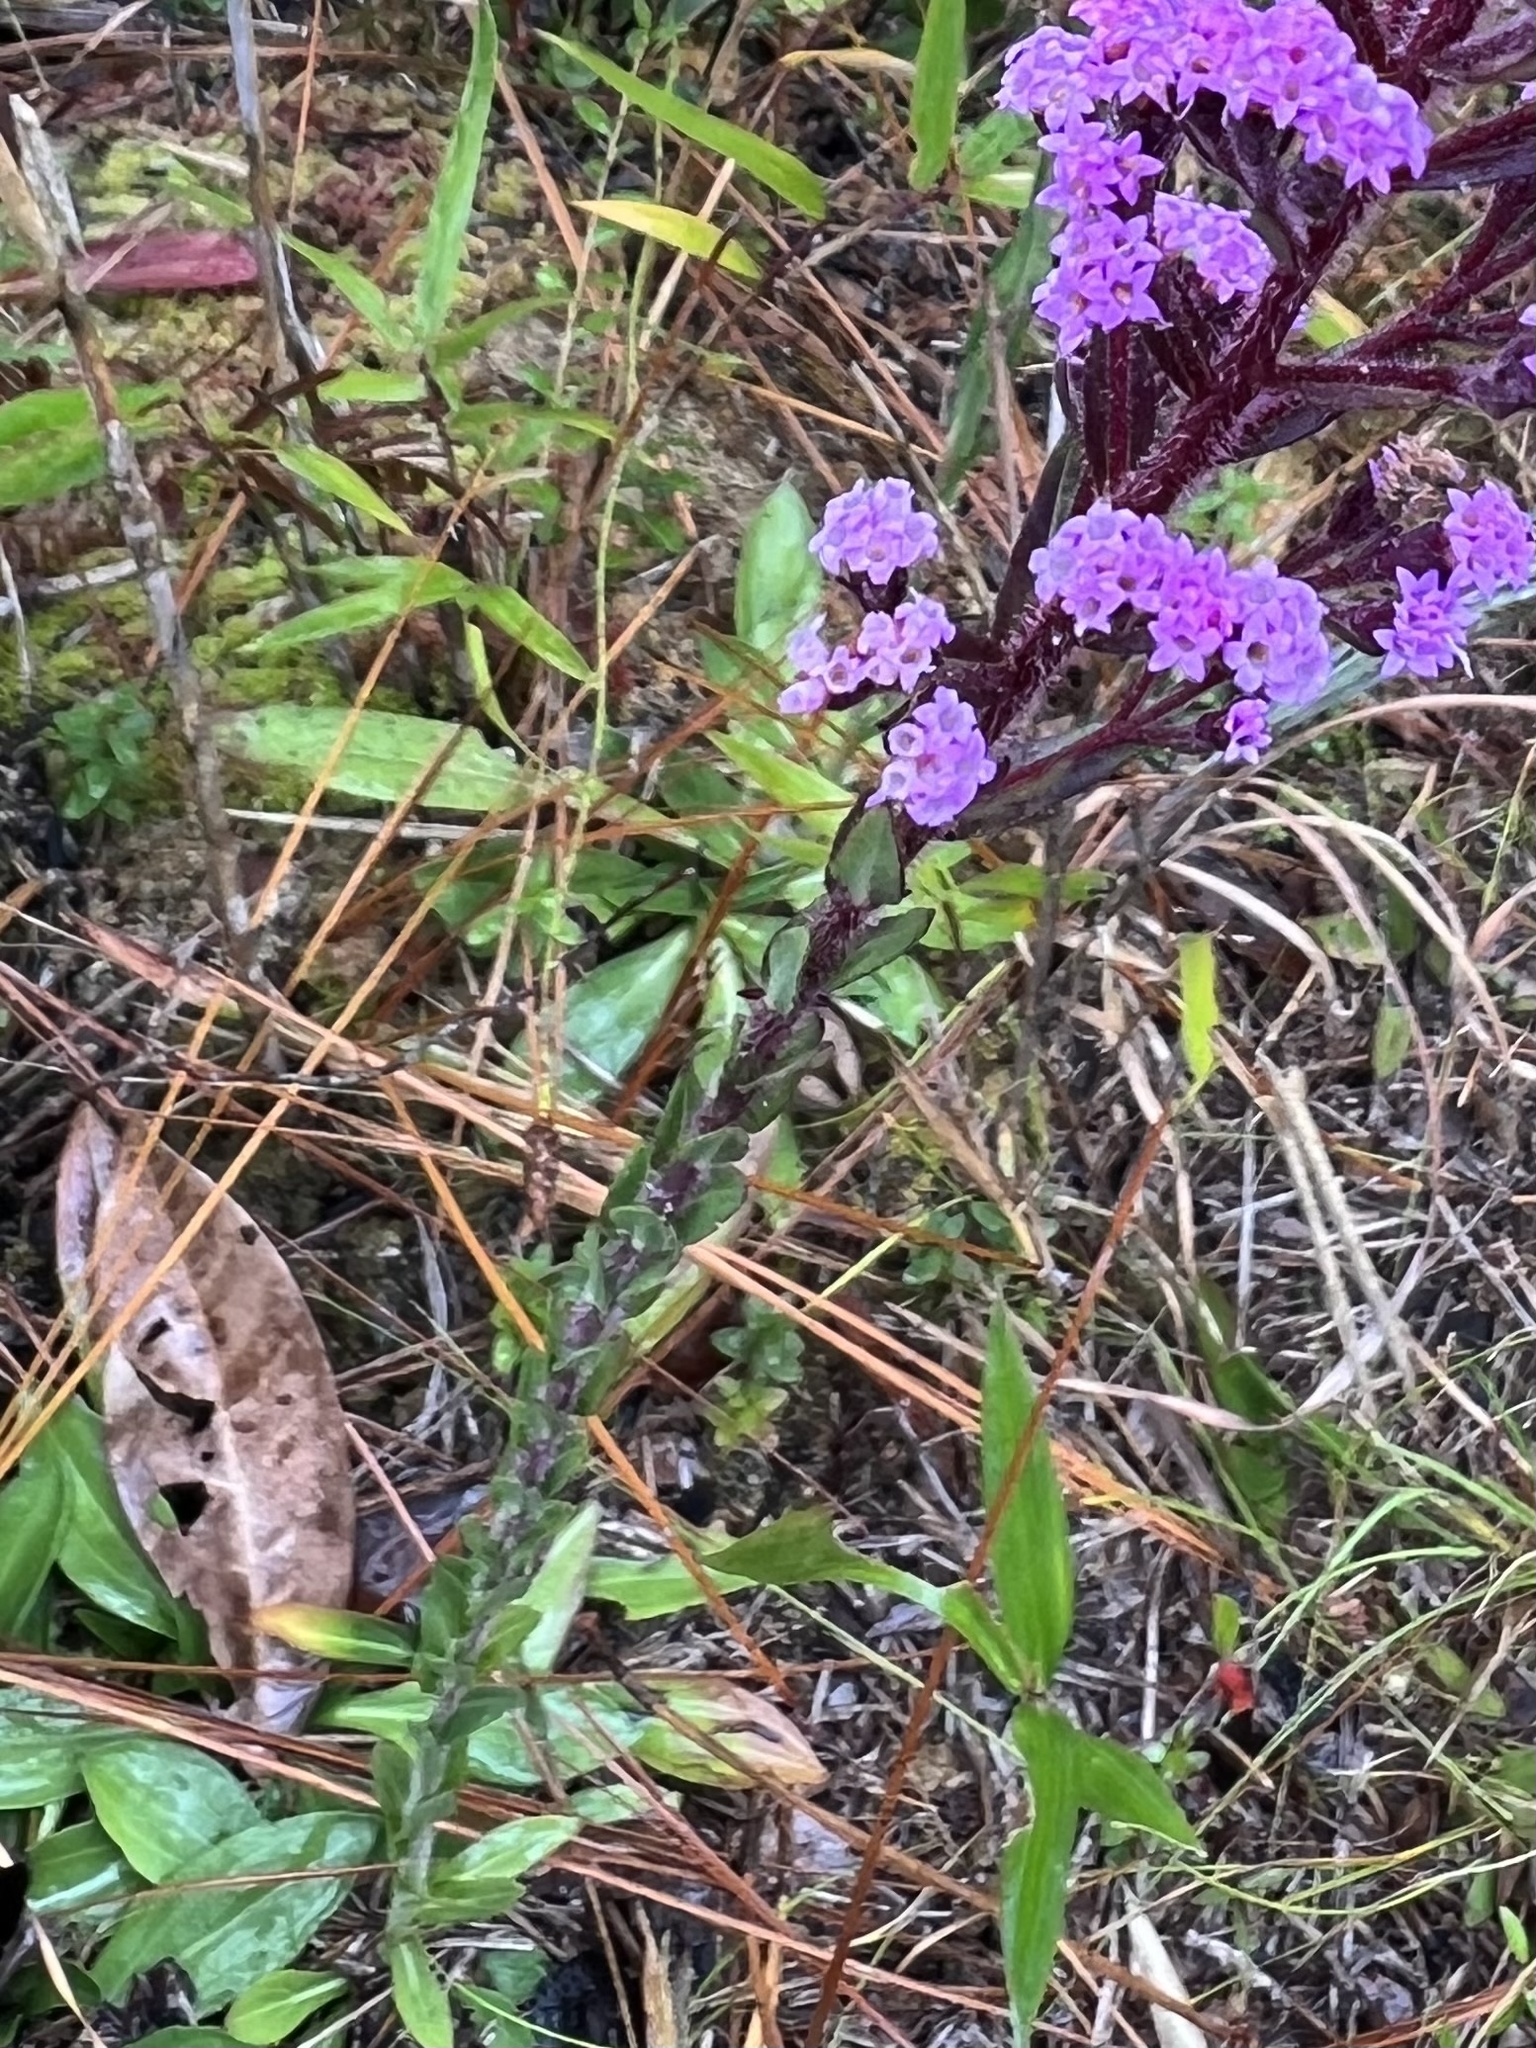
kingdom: Plantae
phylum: Tracheophyta
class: Magnoliopsida
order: Asterales
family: Asteraceae
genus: Carphephorus
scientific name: Carphephorus paniculatus
